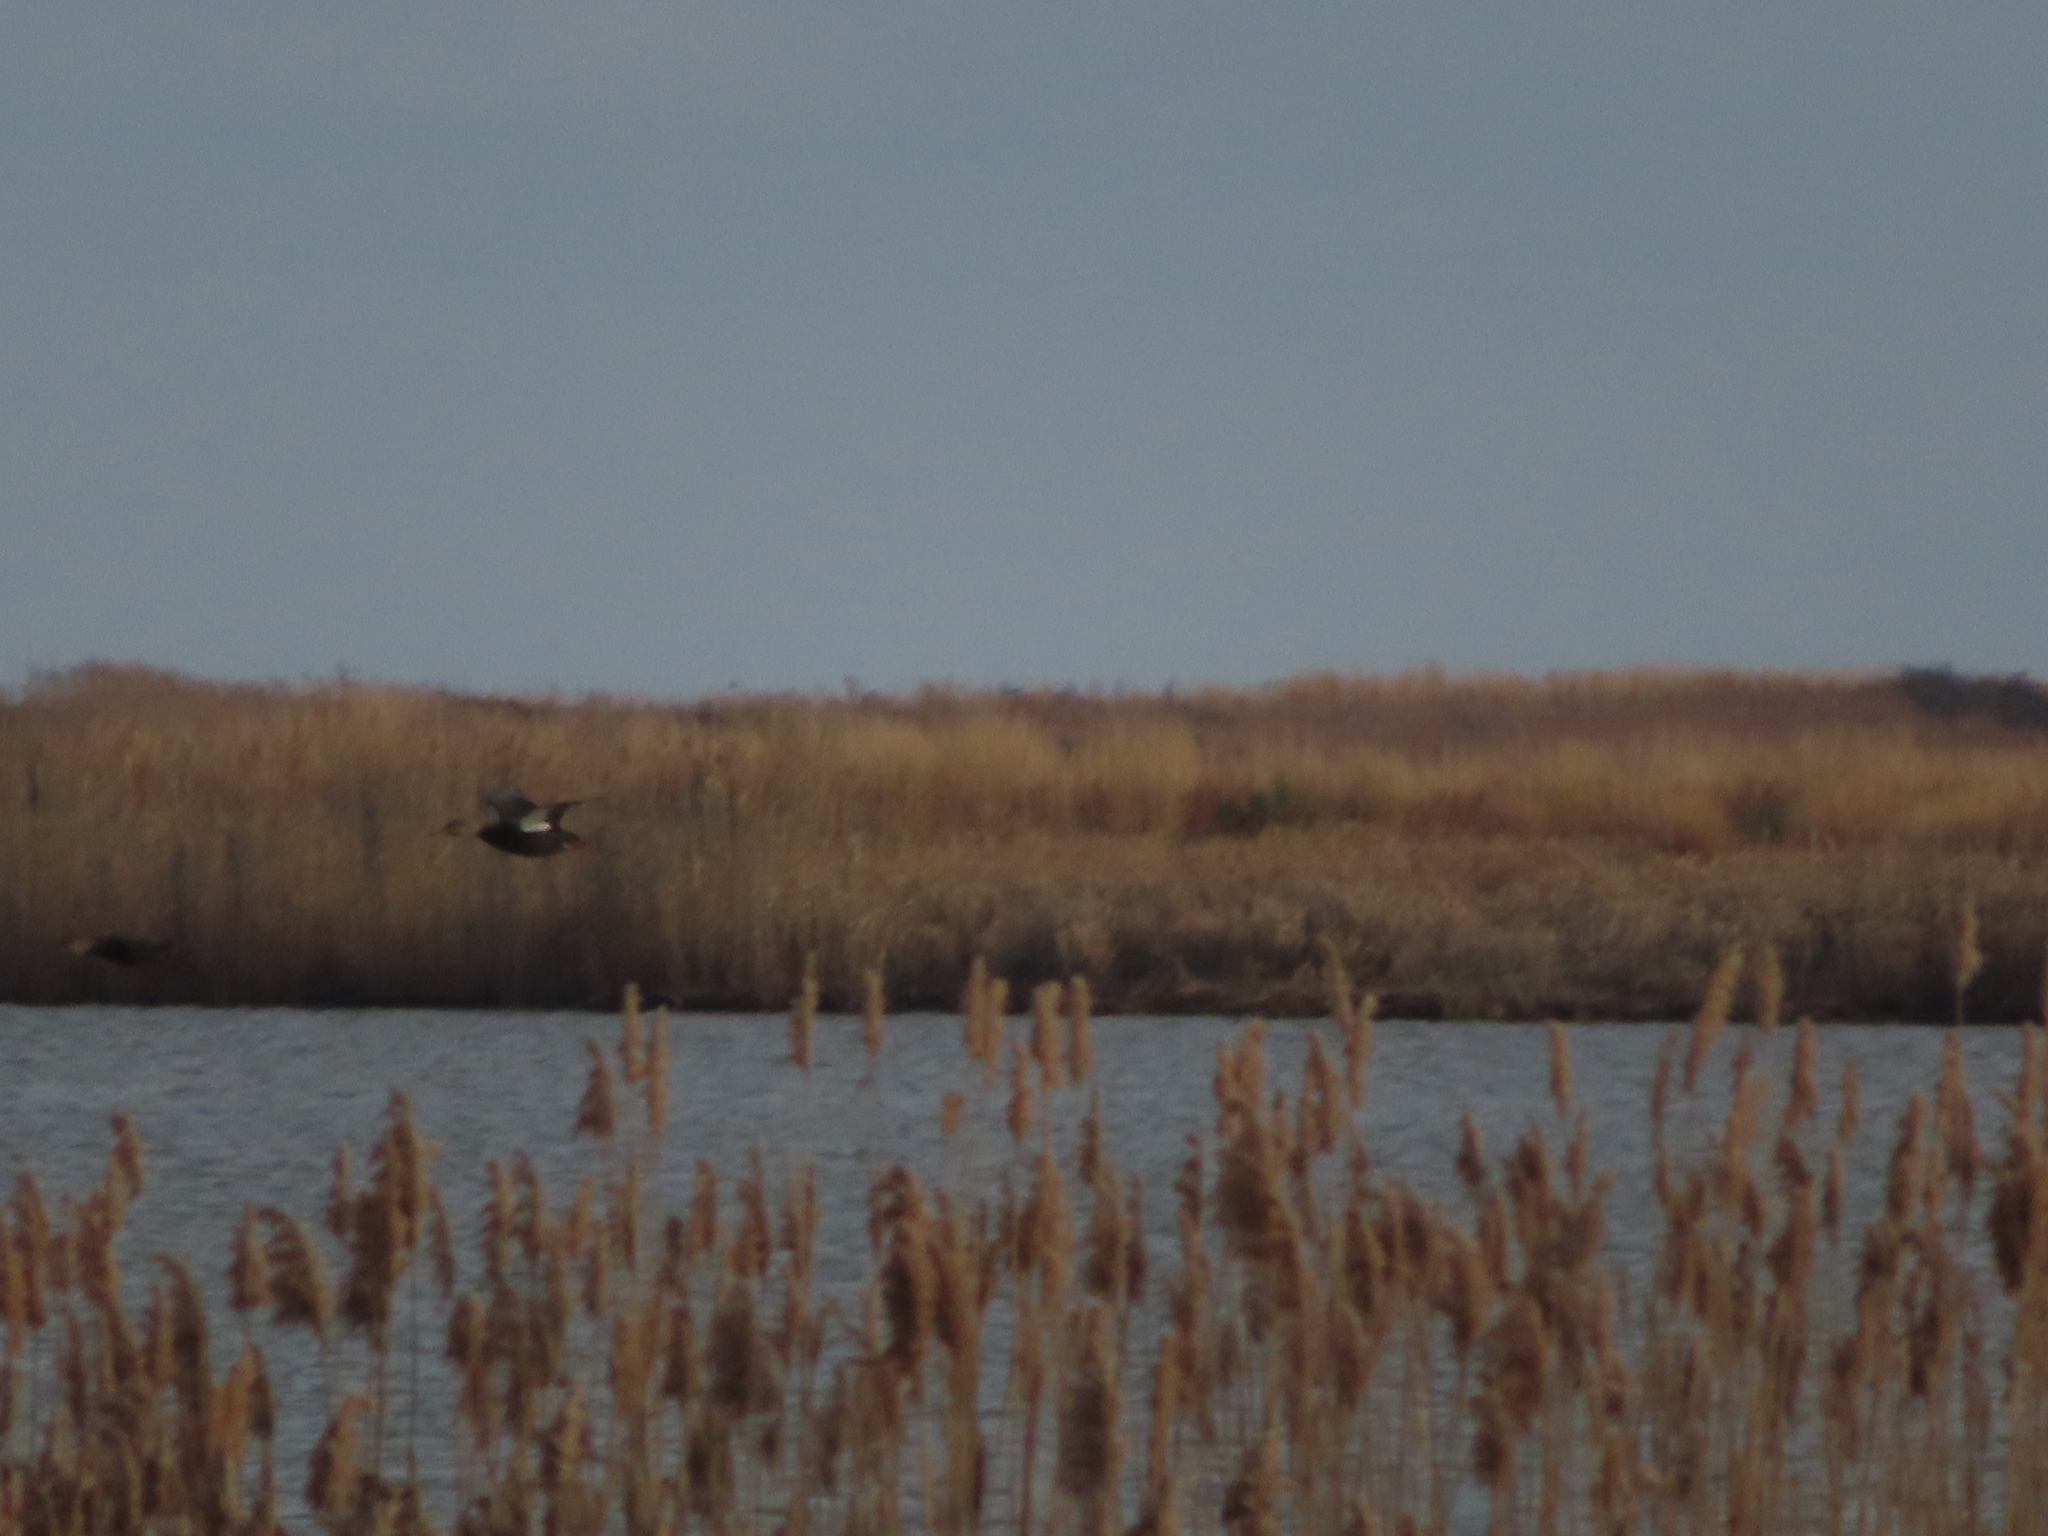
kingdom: Animalia
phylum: Chordata
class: Aves
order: Anseriformes
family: Anatidae
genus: Anas
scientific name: Anas rubripes
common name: American black duck
